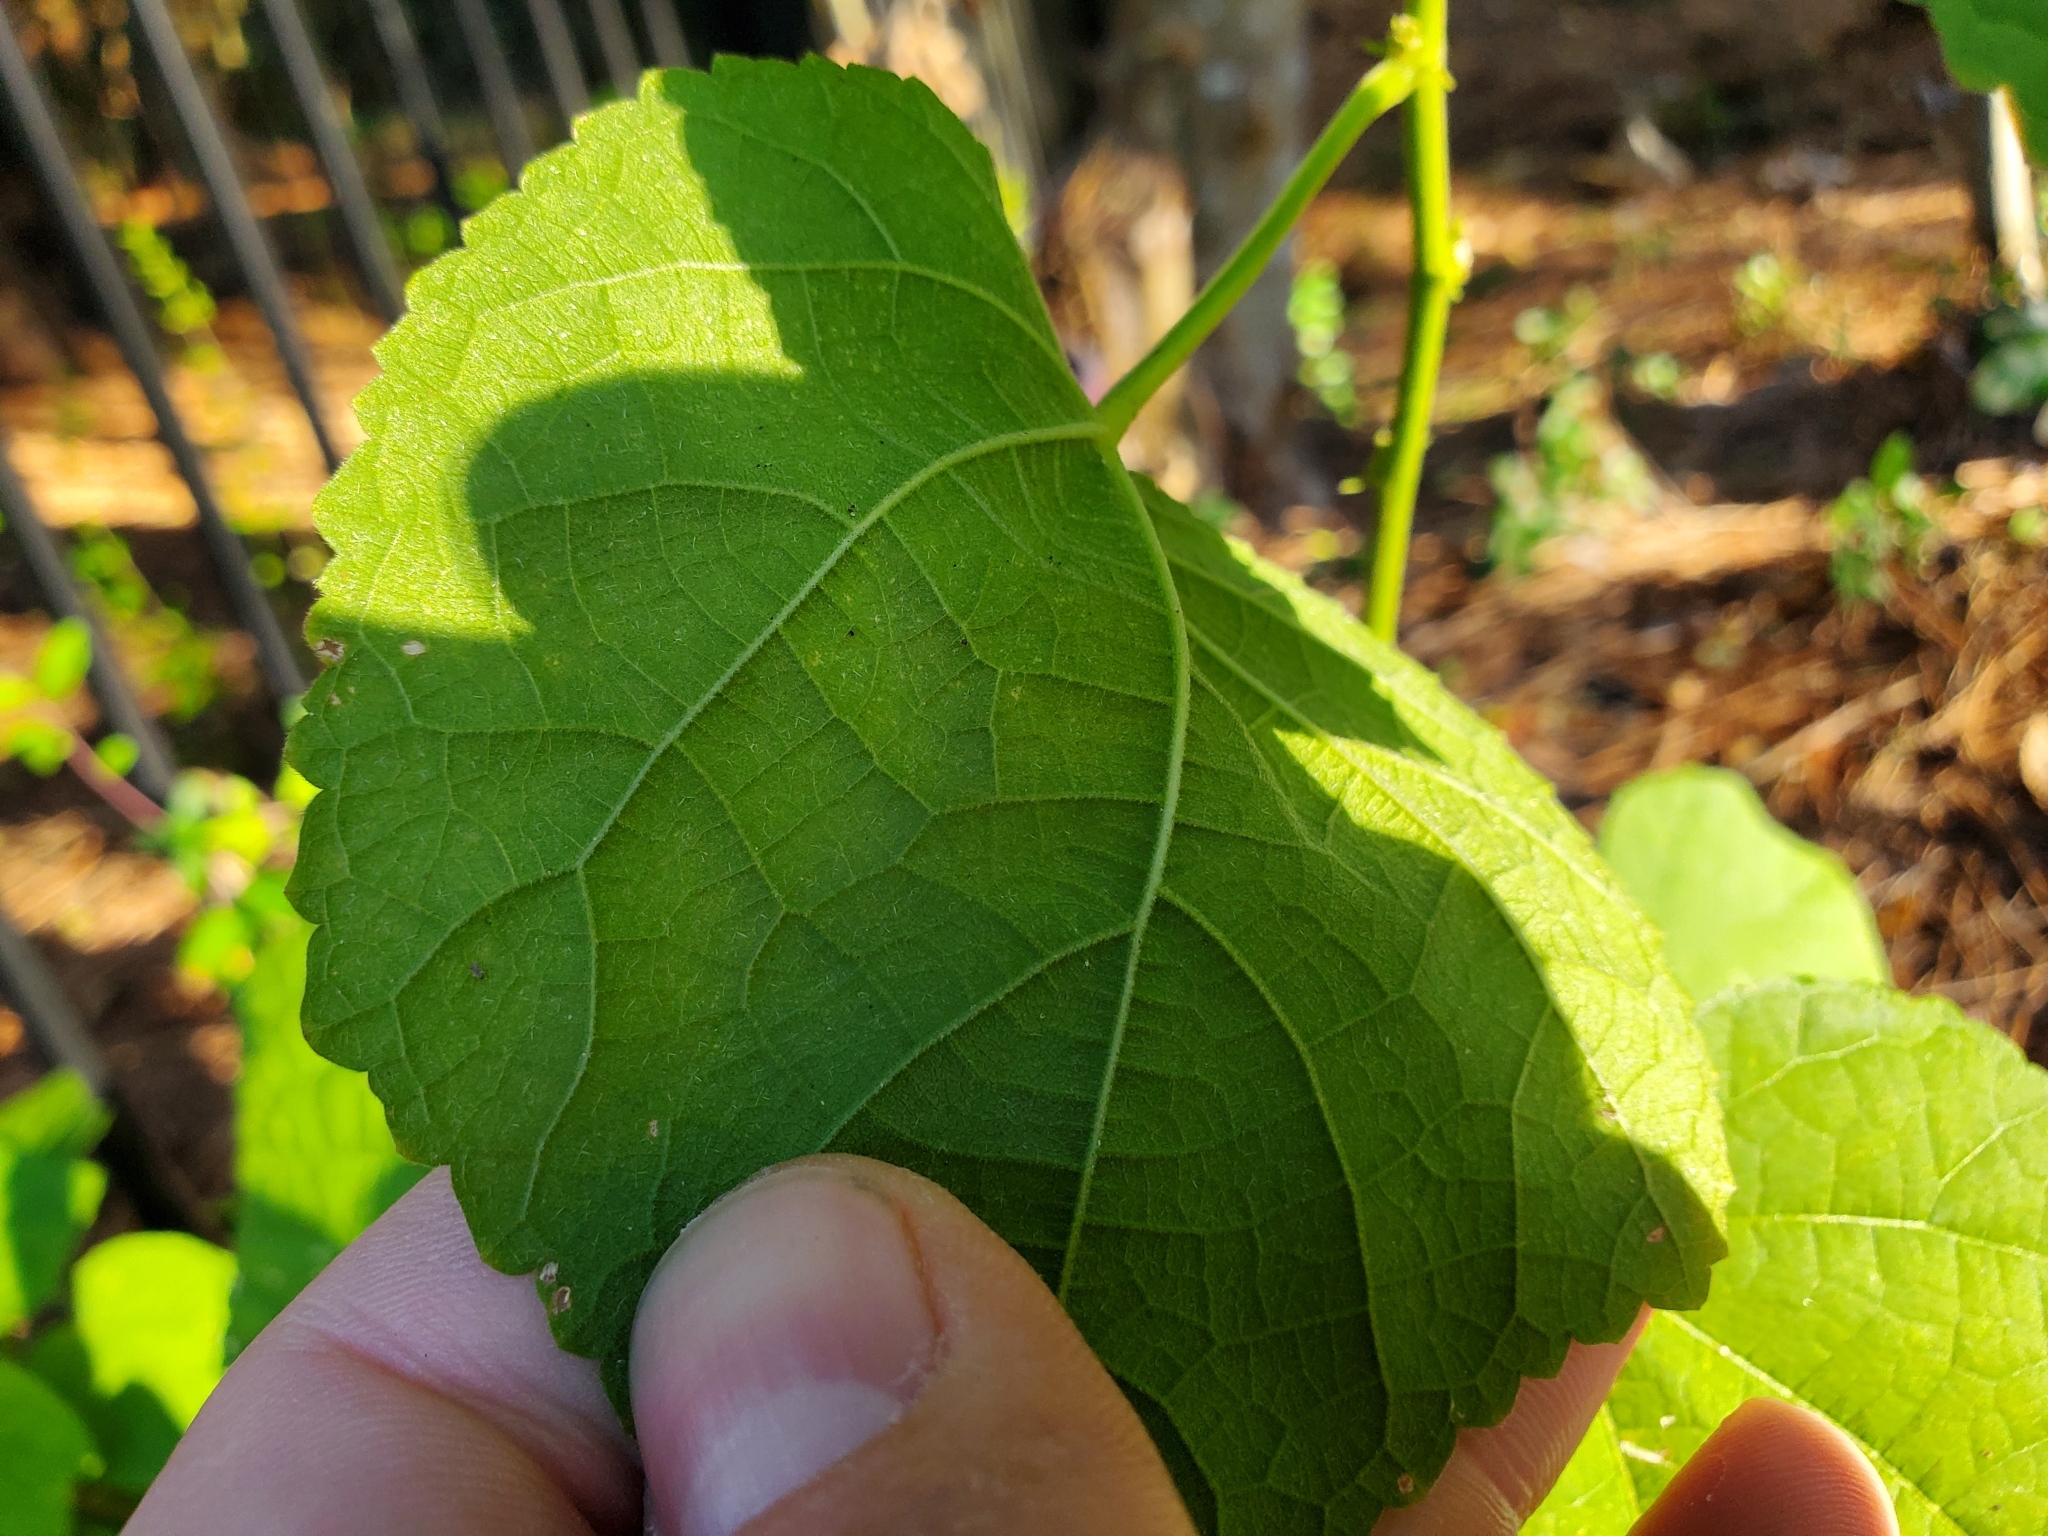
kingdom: Plantae
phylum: Tracheophyta
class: Magnoliopsida
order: Malvales
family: Malvaceae
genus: Malvaviscus
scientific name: Malvaviscus arboreus
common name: Wax mallow
